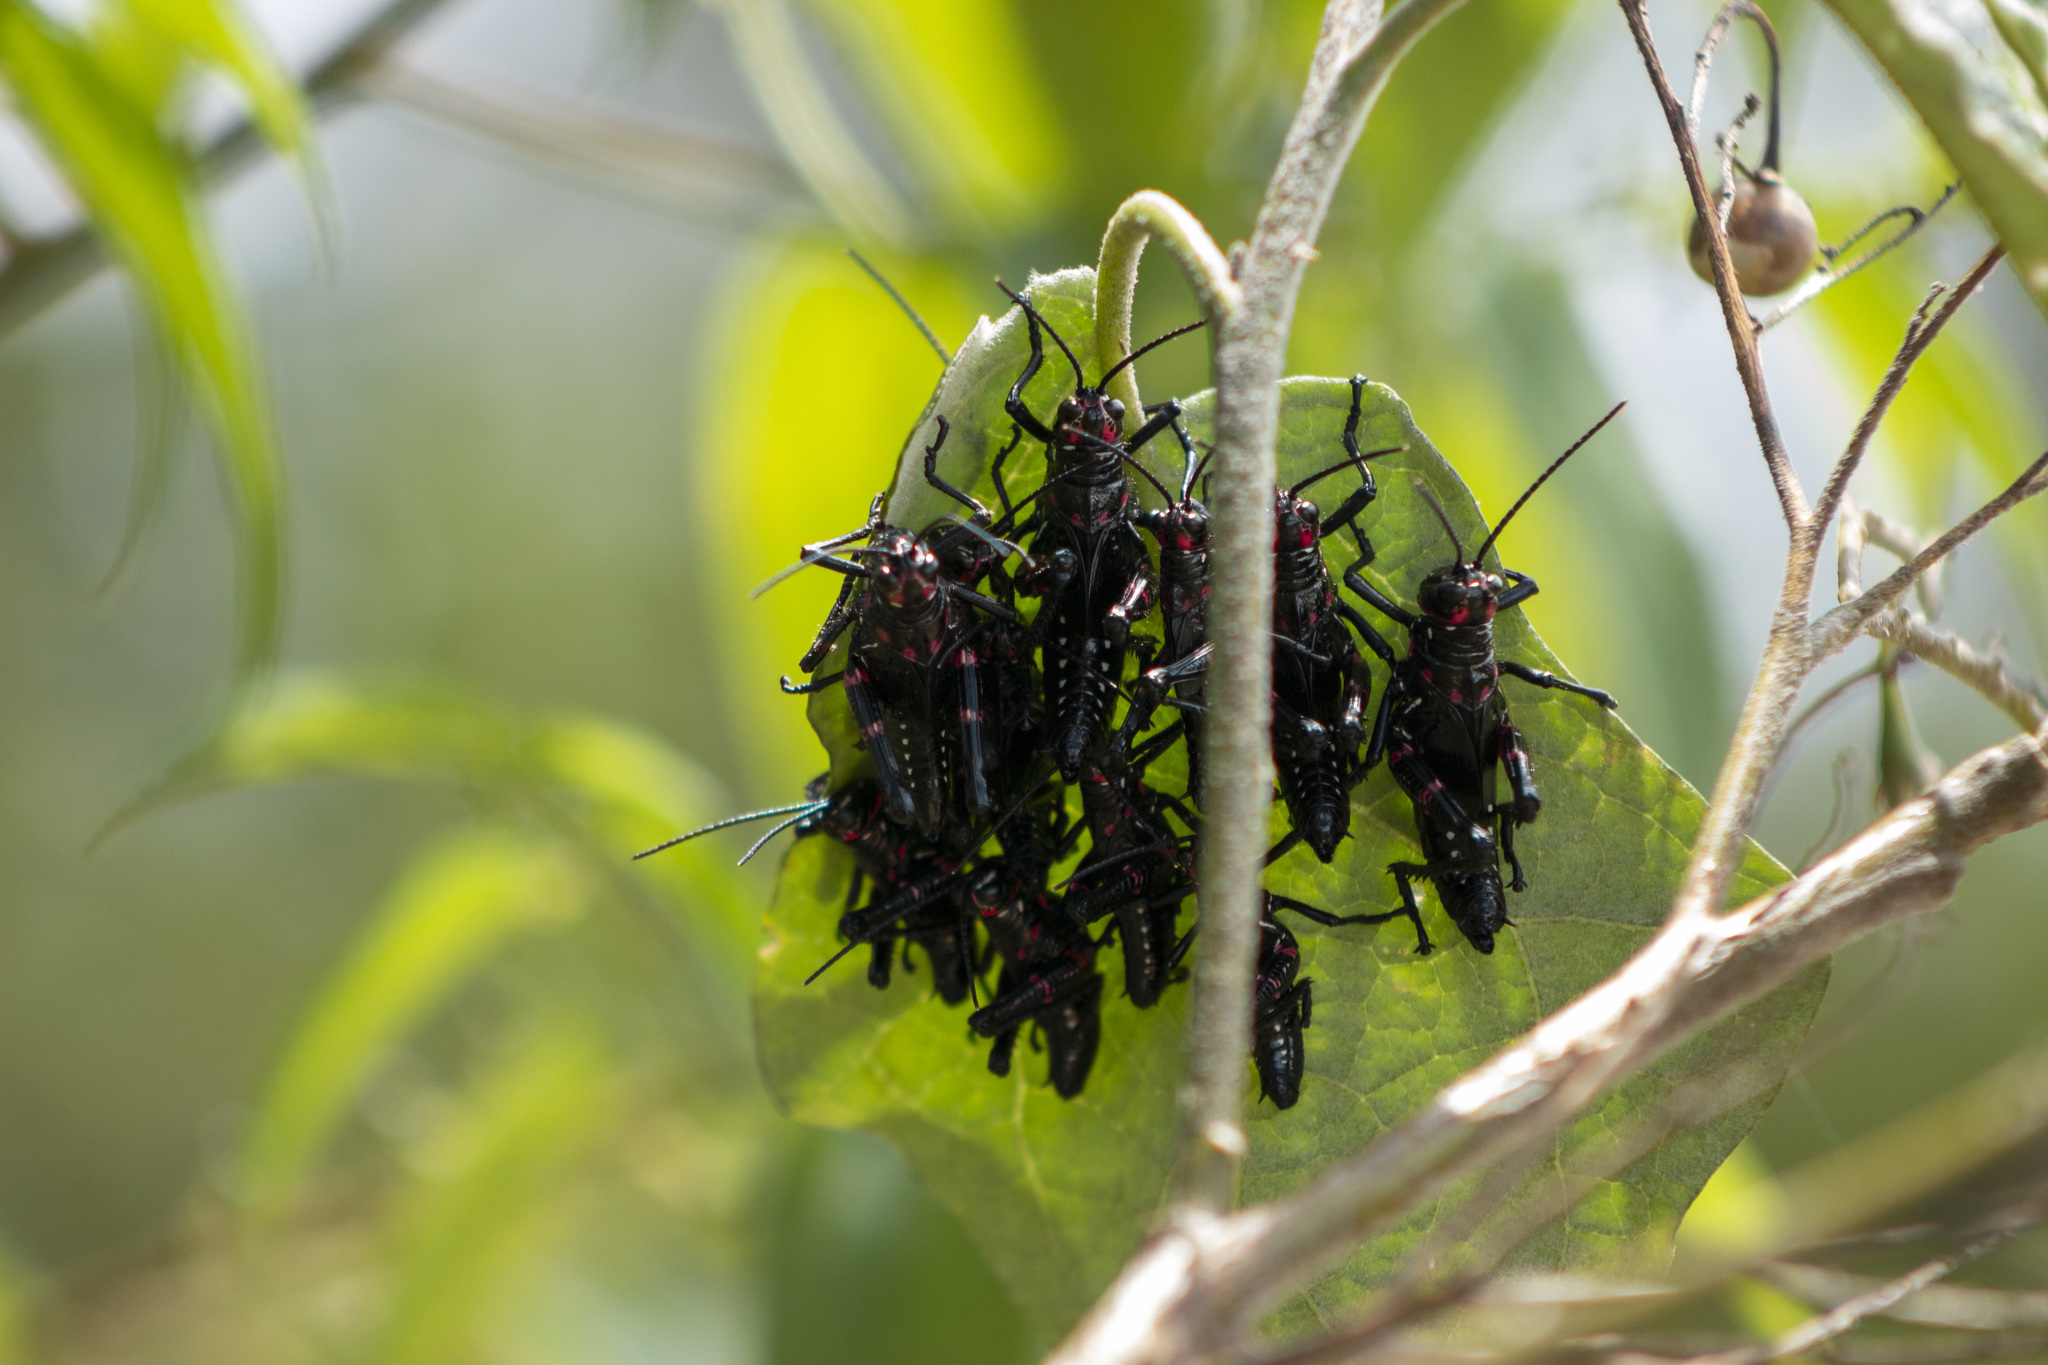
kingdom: Animalia
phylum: Arthropoda
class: Insecta
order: Orthoptera
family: Romaleidae
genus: Chromacris
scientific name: Chromacris speciosa
